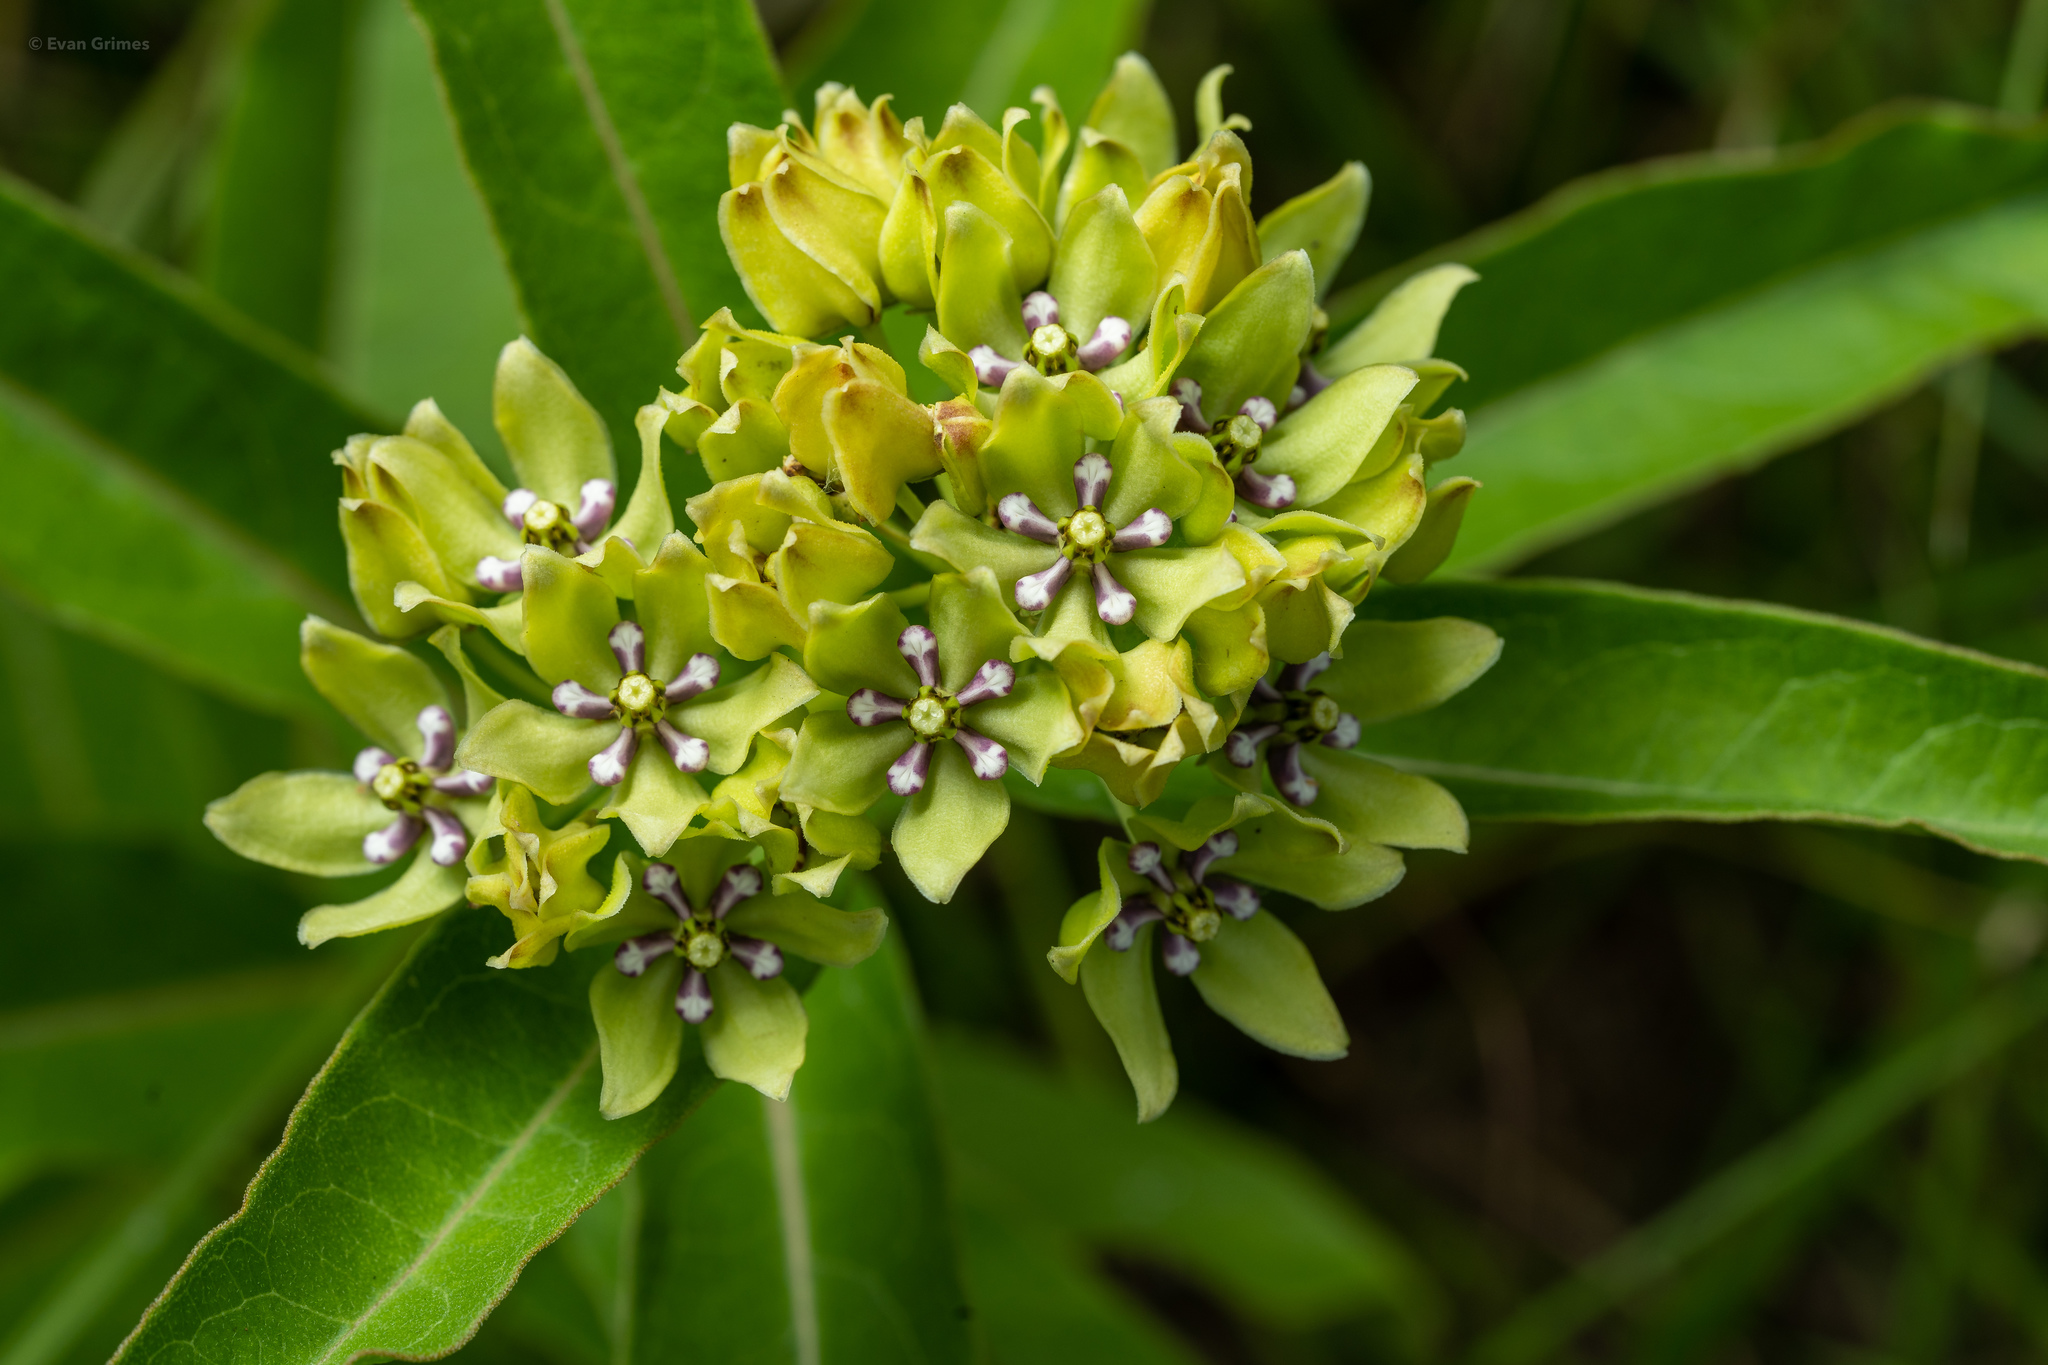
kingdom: Plantae
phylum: Tracheophyta
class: Magnoliopsida
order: Gentianales
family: Apocynaceae
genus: Asclepias
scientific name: Asclepias viridis
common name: Antelope-horns
